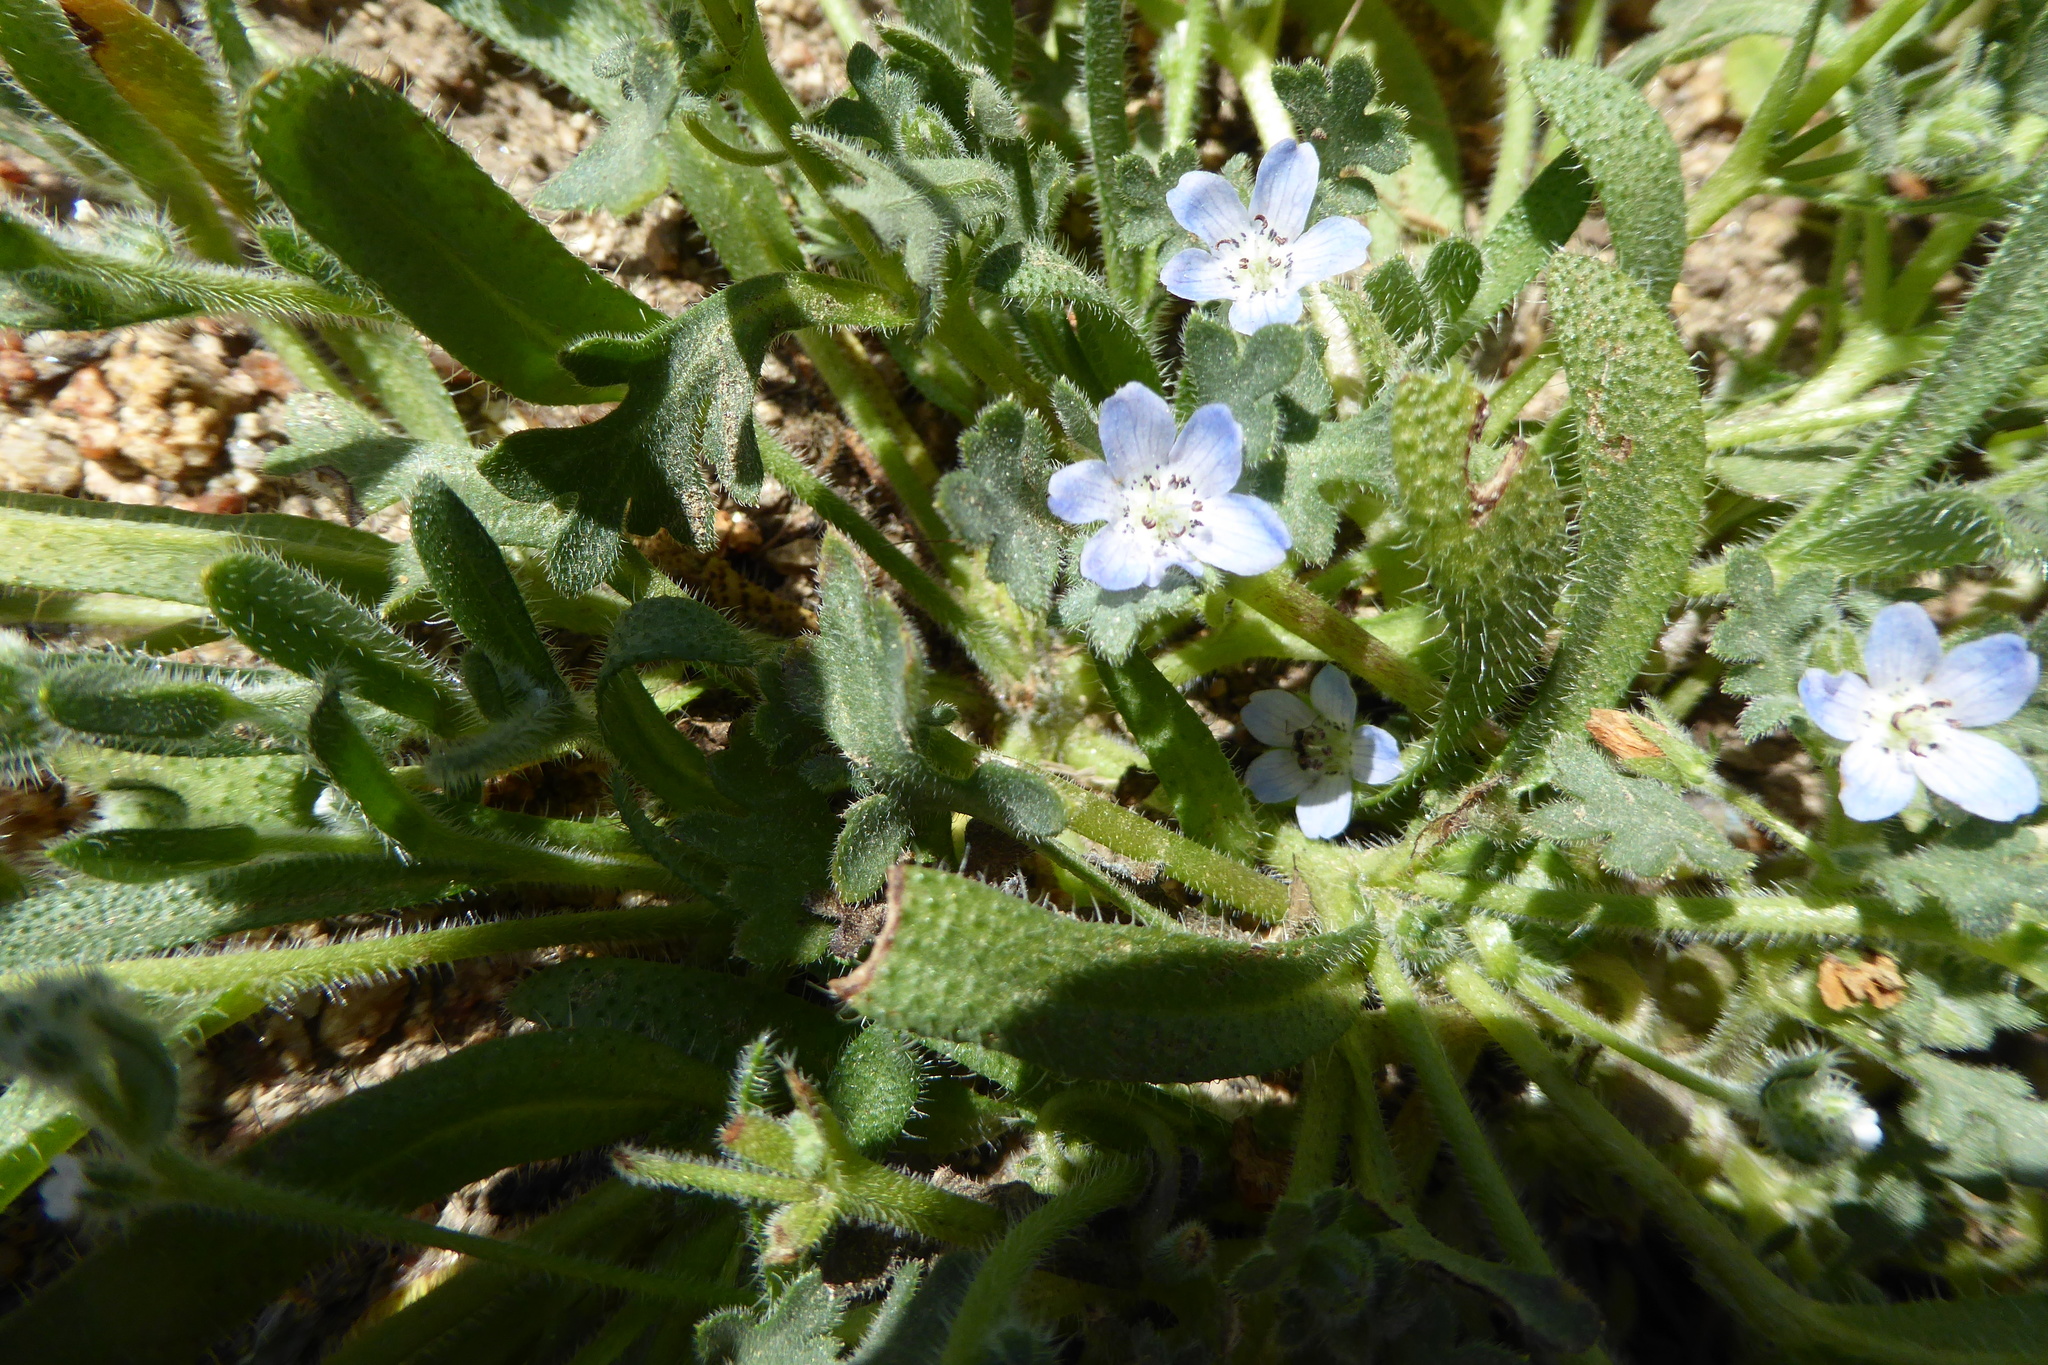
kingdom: Plantae
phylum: Tracheophyta
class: Magnoliopsida
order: Boraginales
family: Hydrophyllaceae
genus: Nemophila
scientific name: Nemophila menziesii
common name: Baby's-blue-eyes
